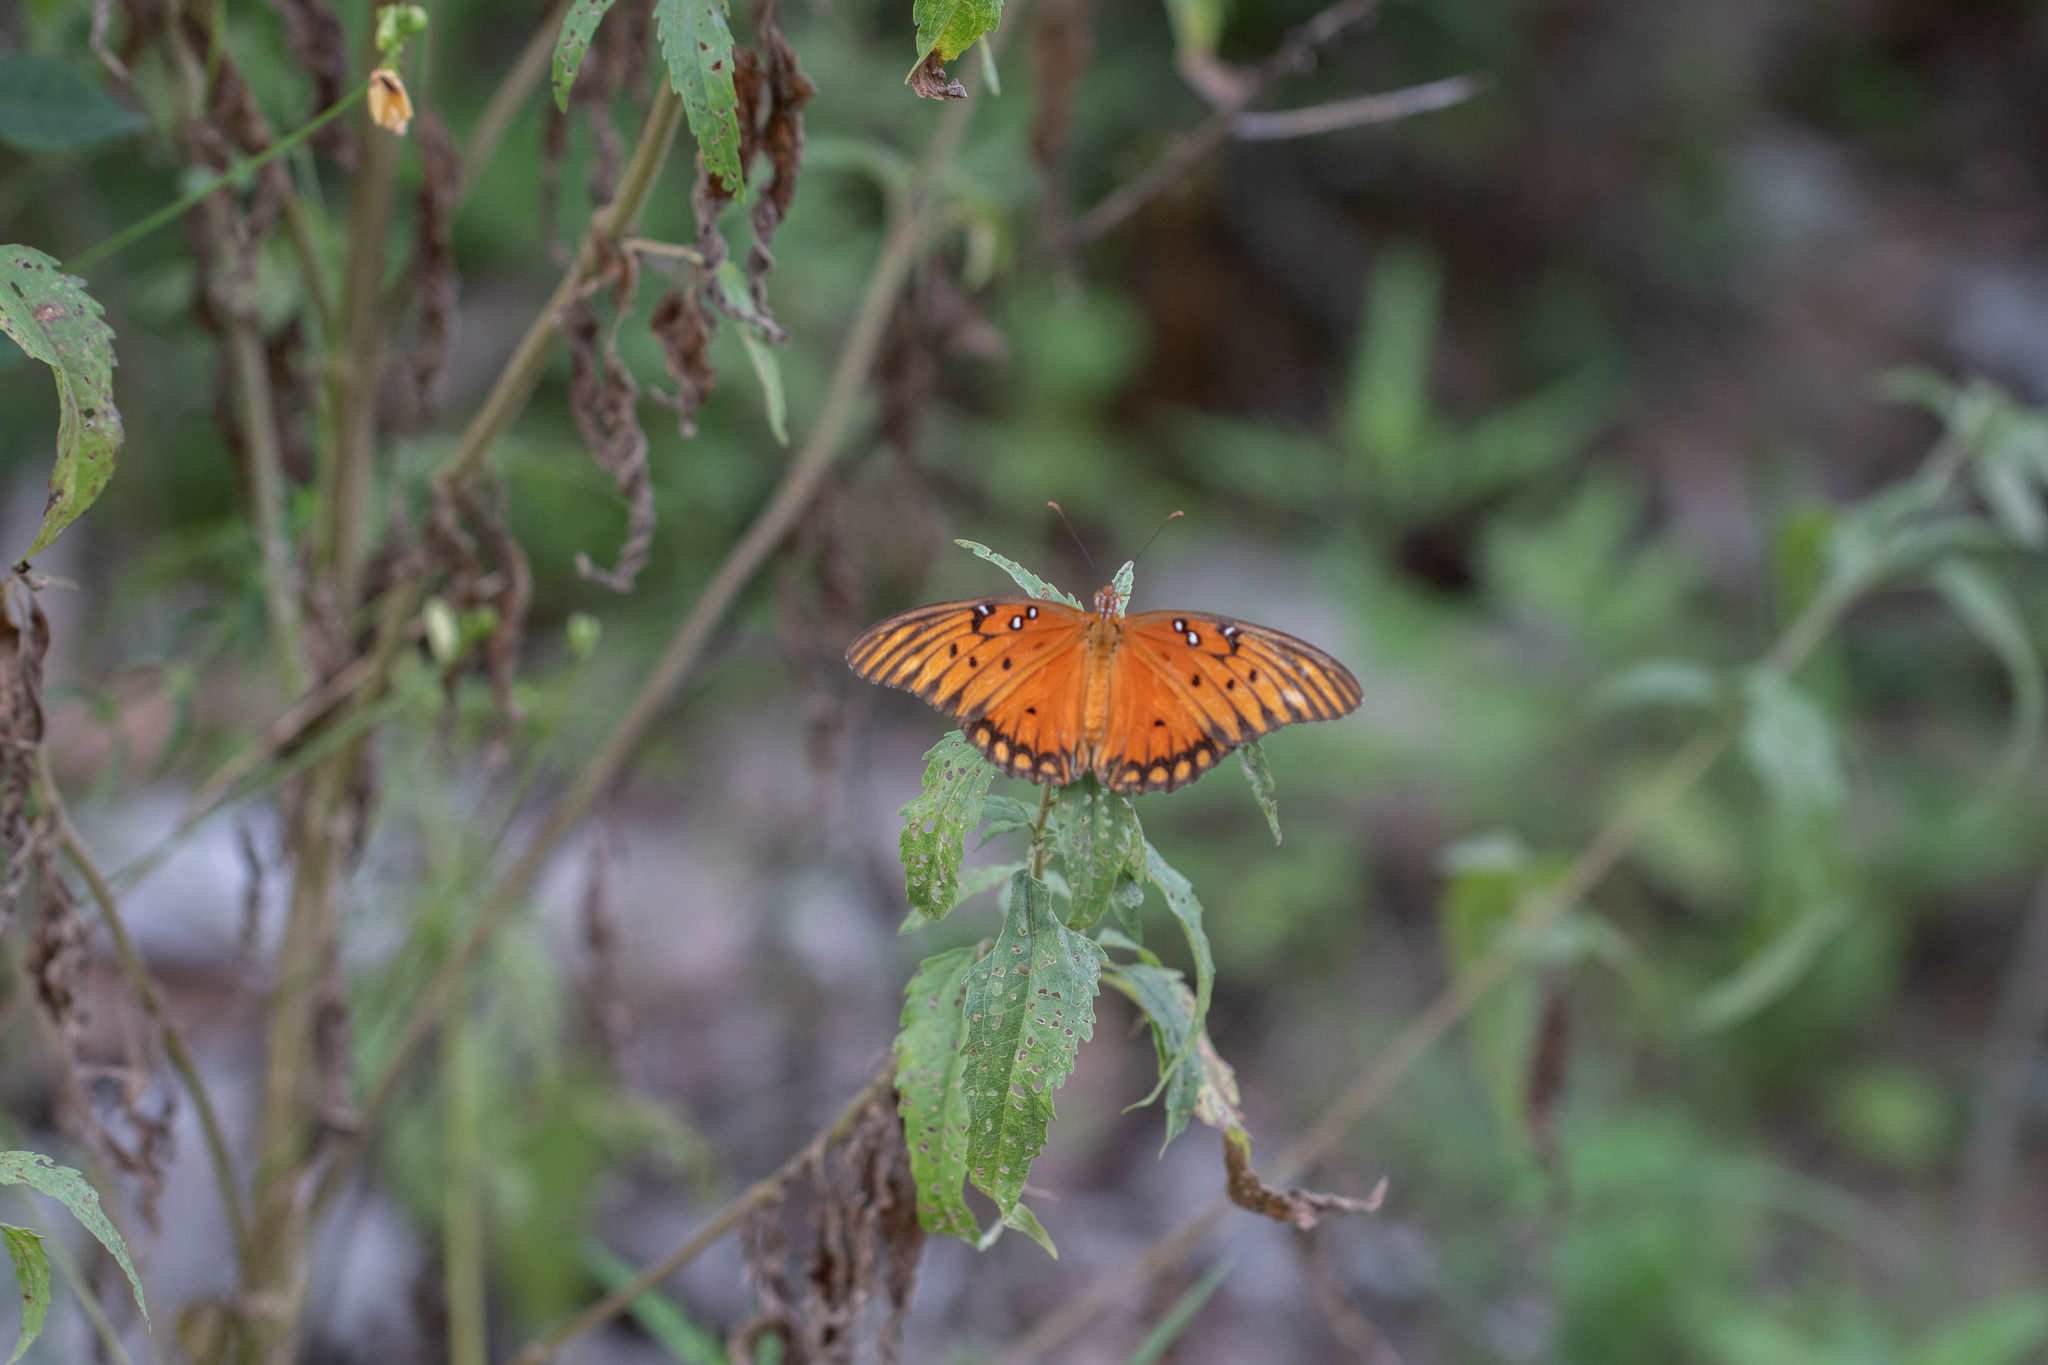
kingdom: Animalia
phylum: Arthropoda
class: Insecta
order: Lepidoptera
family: Nymphalidae
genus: Dione
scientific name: Dione vanillae
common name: Gulf fritillary
